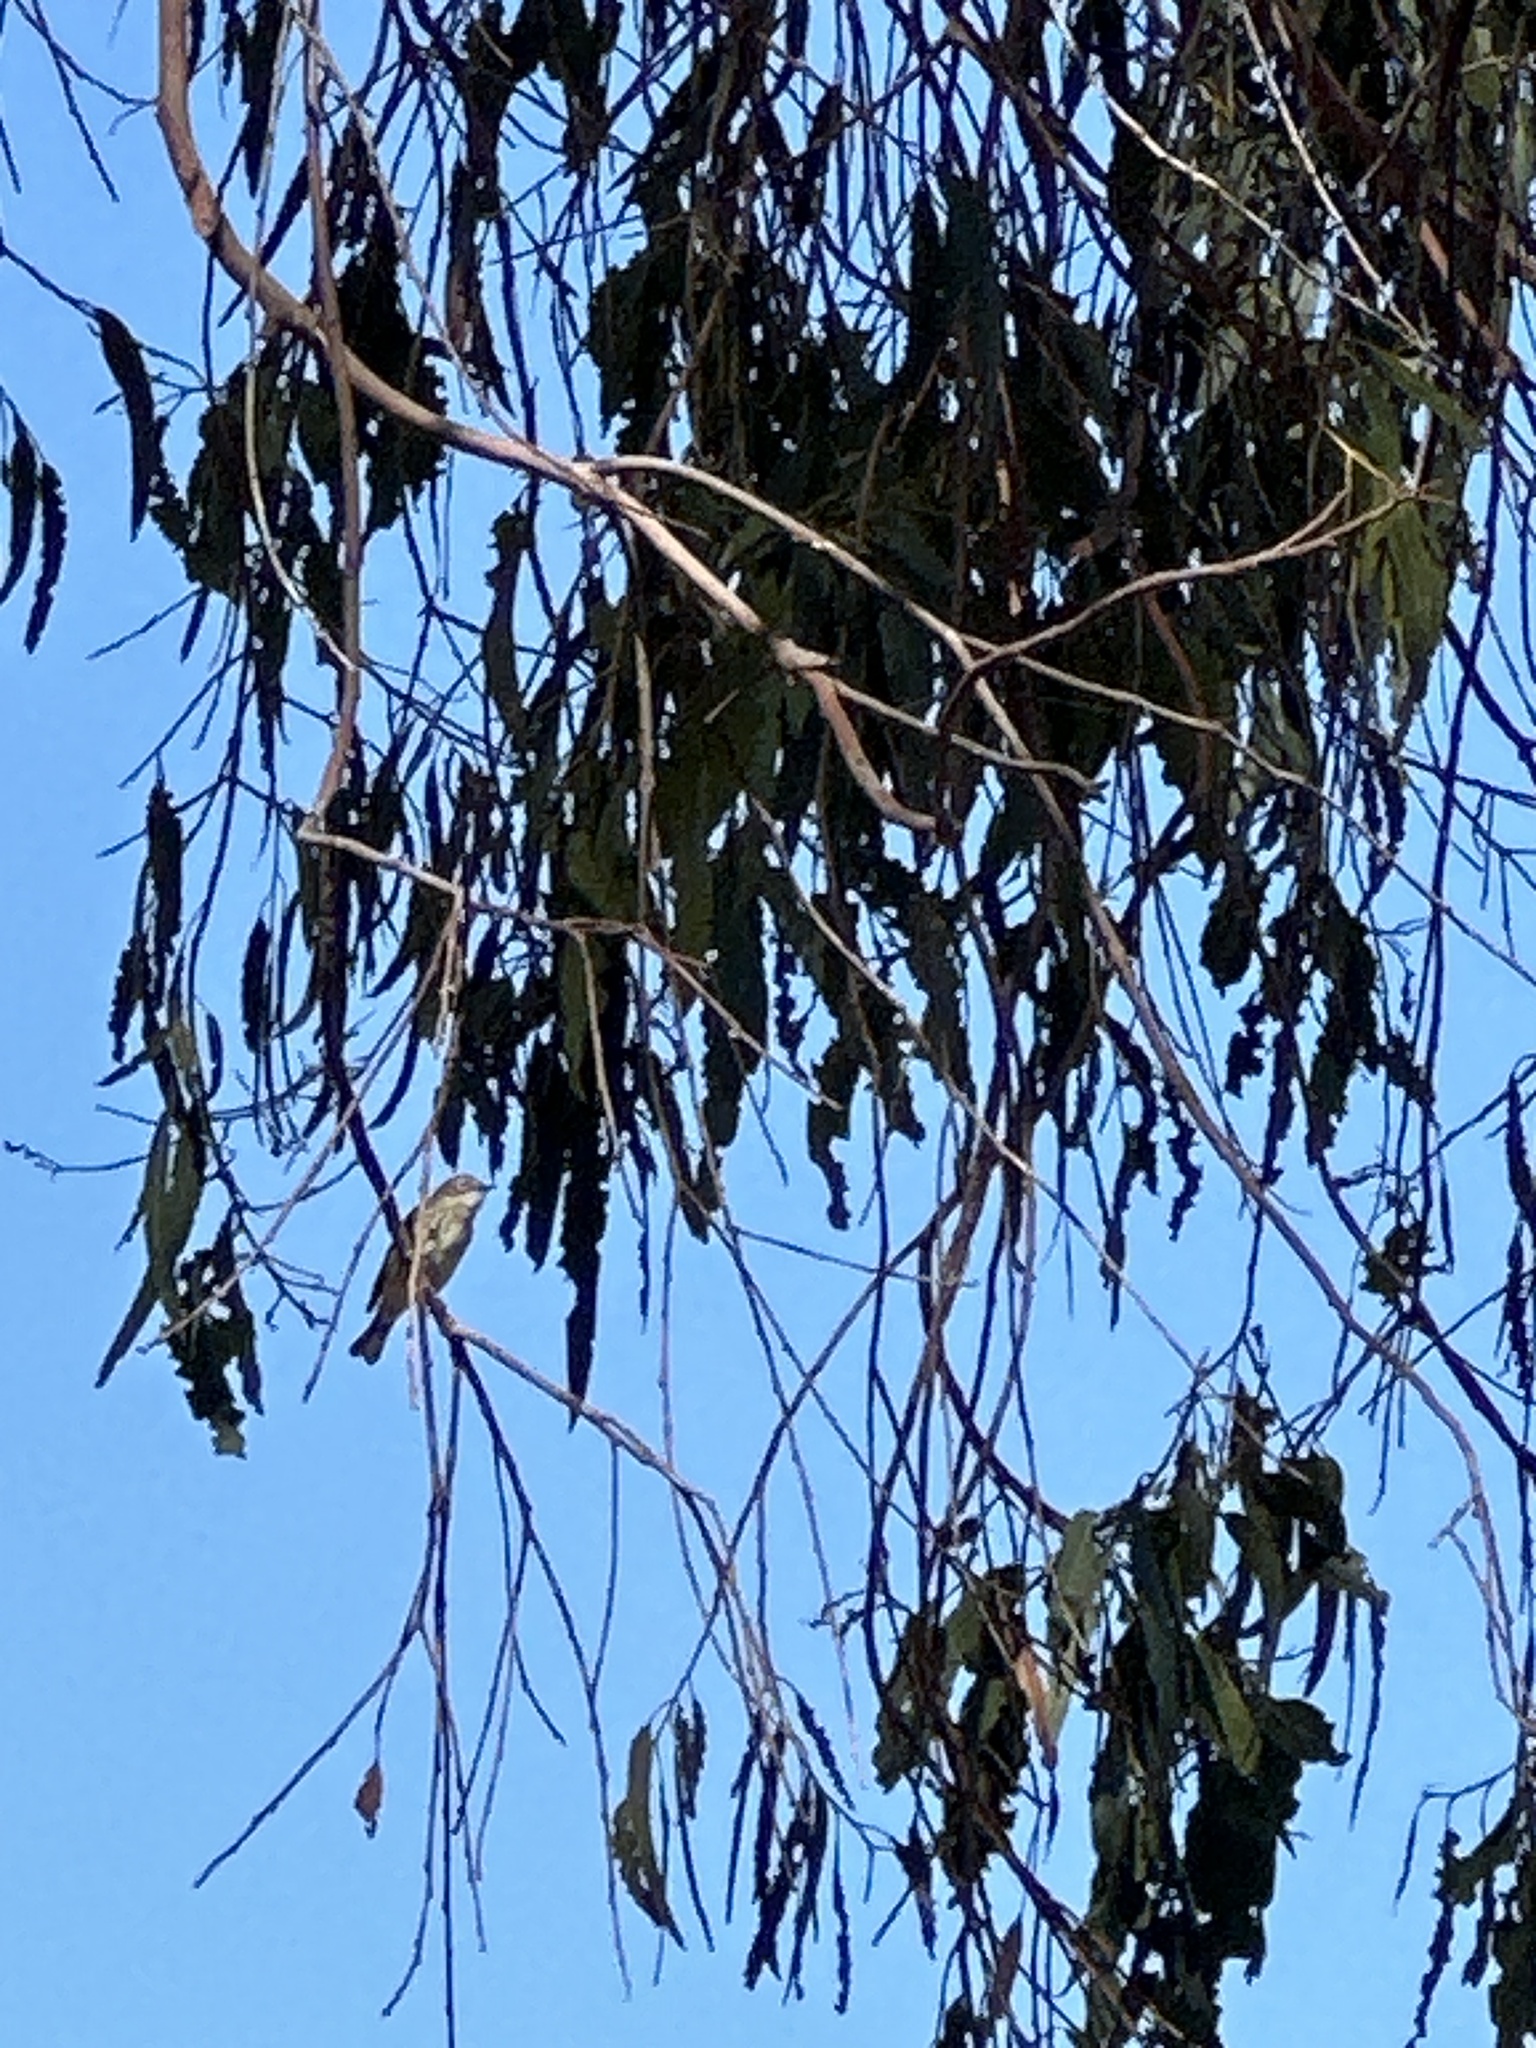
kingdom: Animalia
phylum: Chordata
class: Aves
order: Passeriformes
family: Parulidae
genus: Setophaga
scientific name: Setophaga coronata
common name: Myrtle warbler
